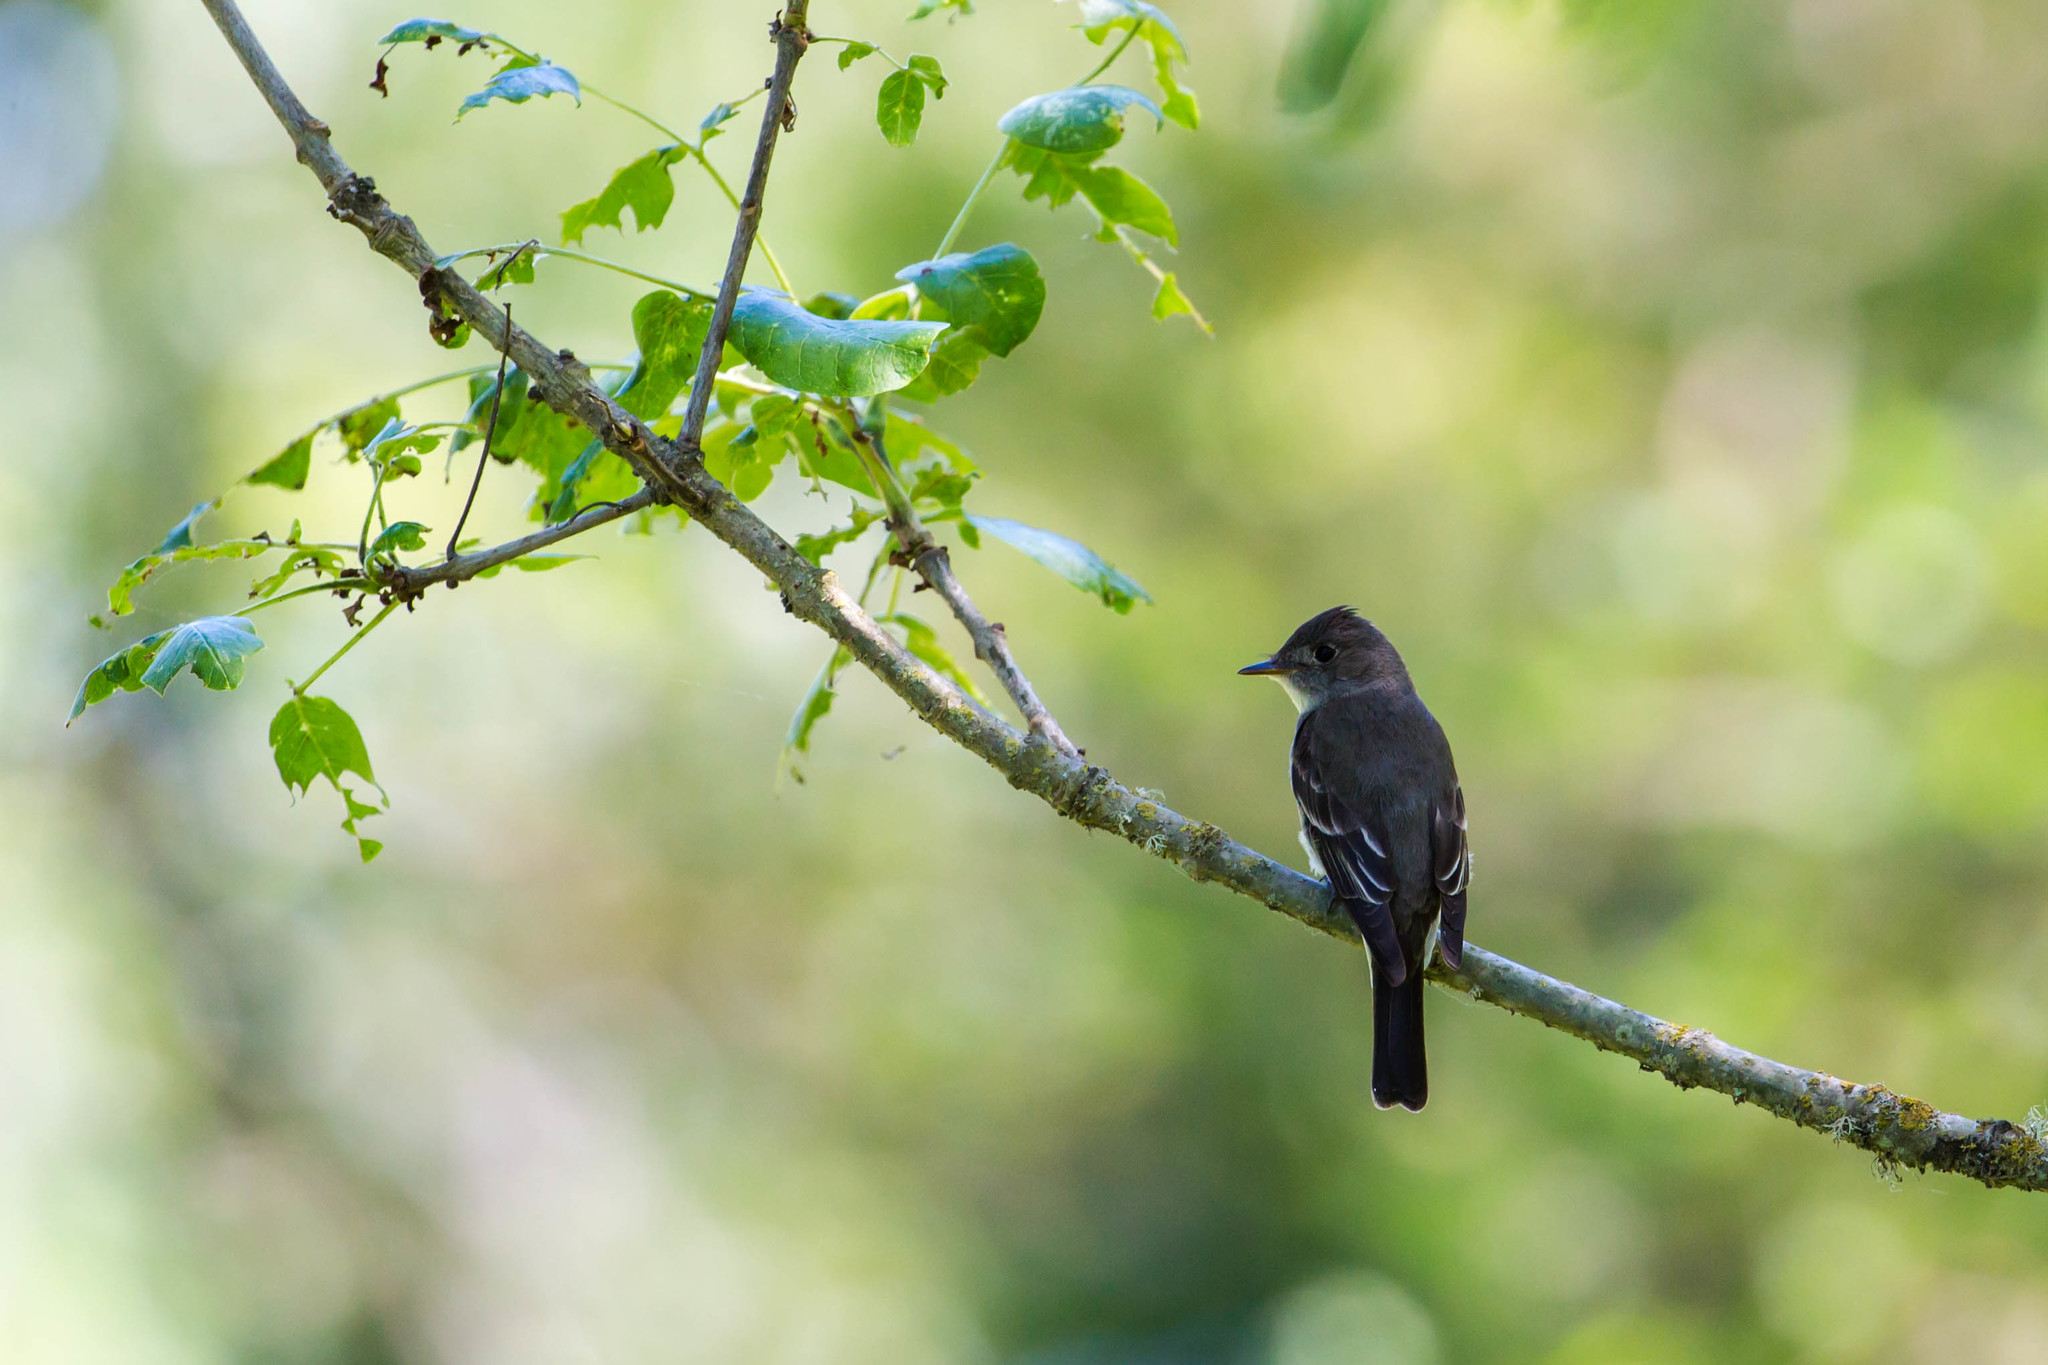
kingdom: Animalia
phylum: Chordata
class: Aves
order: Passeriformes
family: Tyrannidae
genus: Contopus
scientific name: Contopus sordidulus
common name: Western wood-pewee
